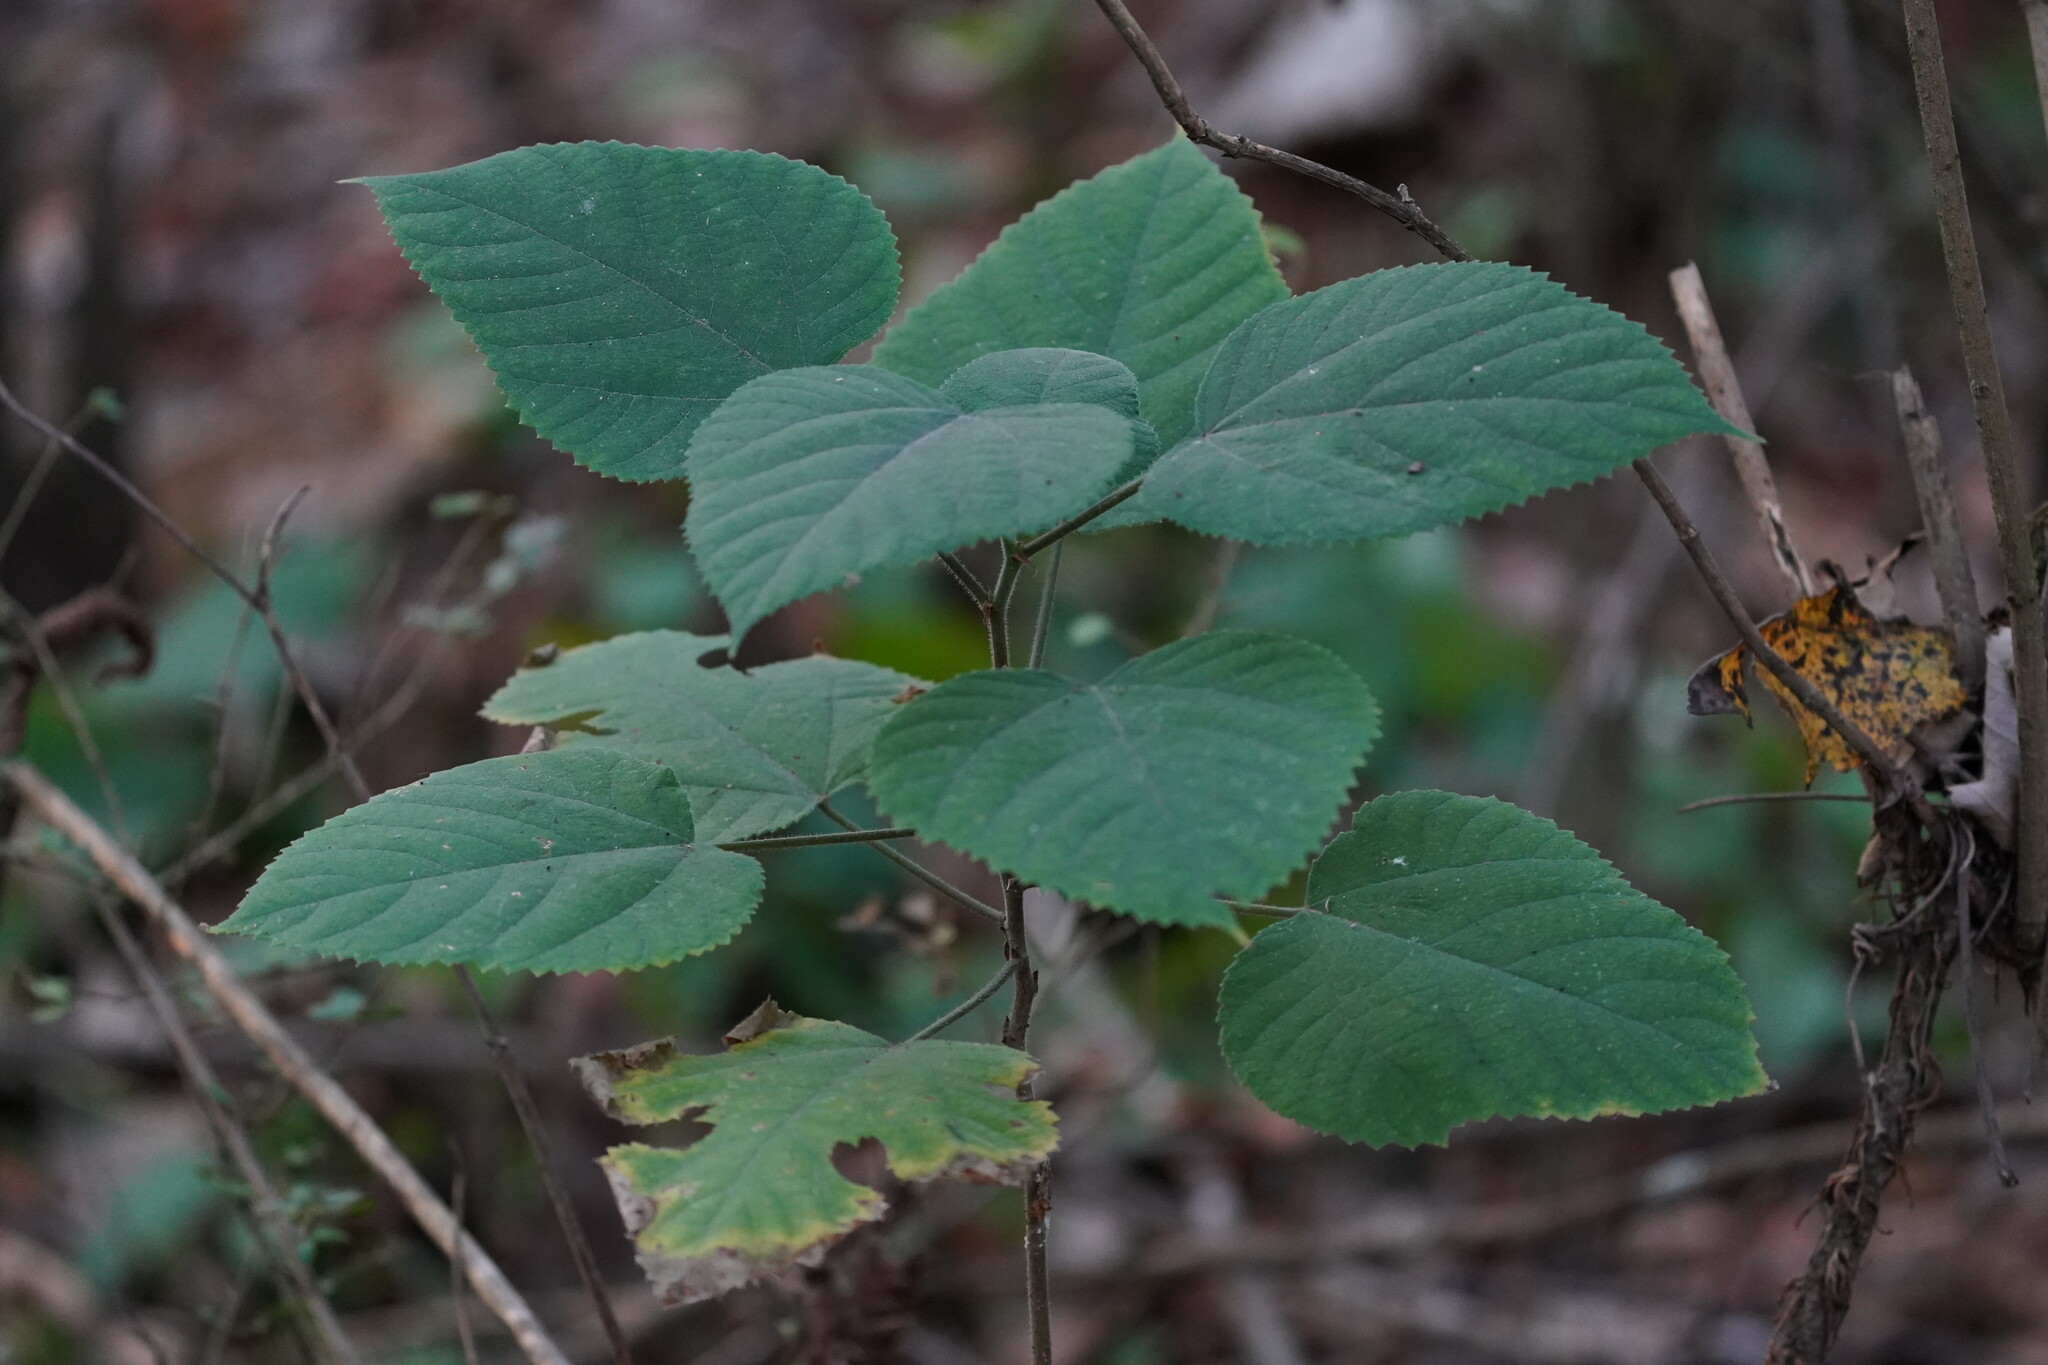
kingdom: Plantae
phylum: Tracheophyta
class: Magnoliopsida
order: Rosales
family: Moraceae
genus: Broussonetia
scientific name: Broussonetia papyrifera
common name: Paper mulberry
